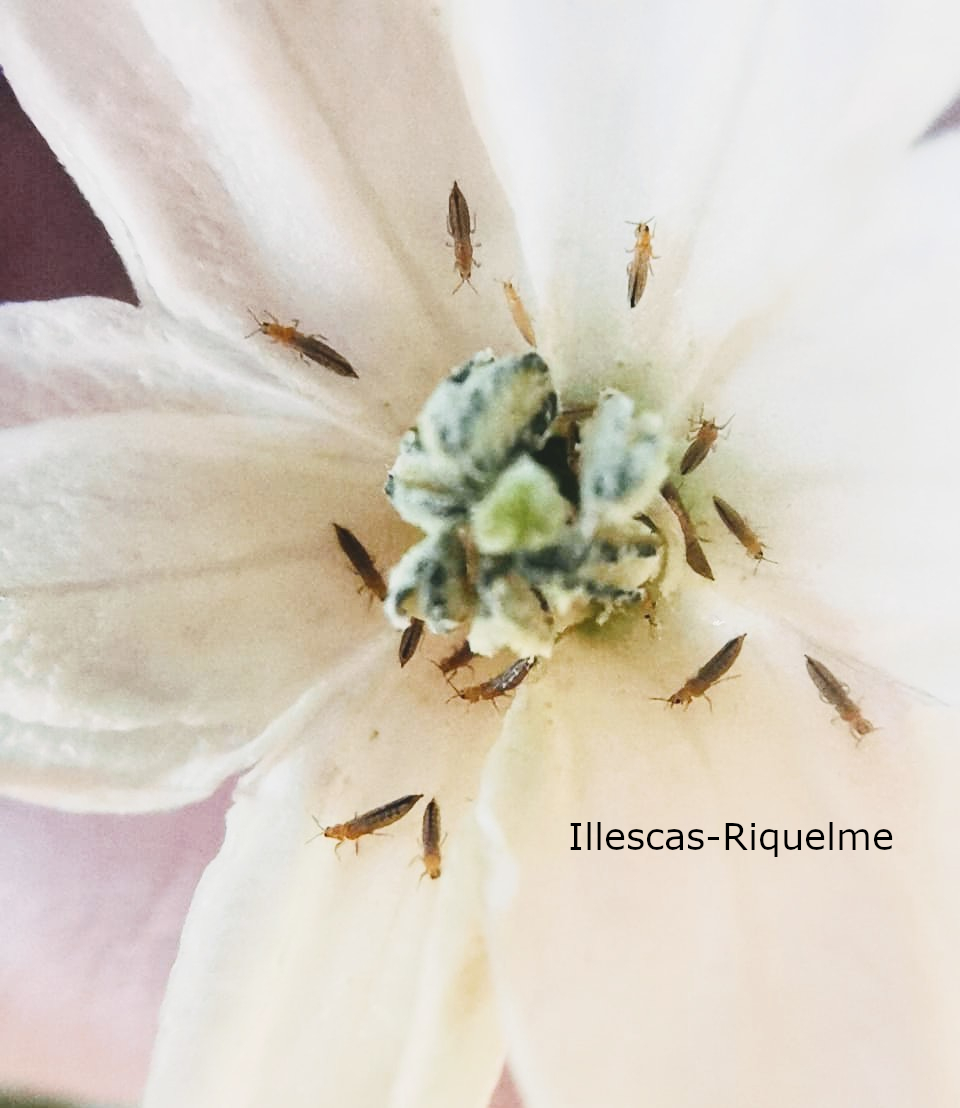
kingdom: Animalia
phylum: Arthropoda
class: Insecta
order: Thysanoptera
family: Thripidae
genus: Frankliniella
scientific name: Frankliniella occidentalis
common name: Western flower thrips
